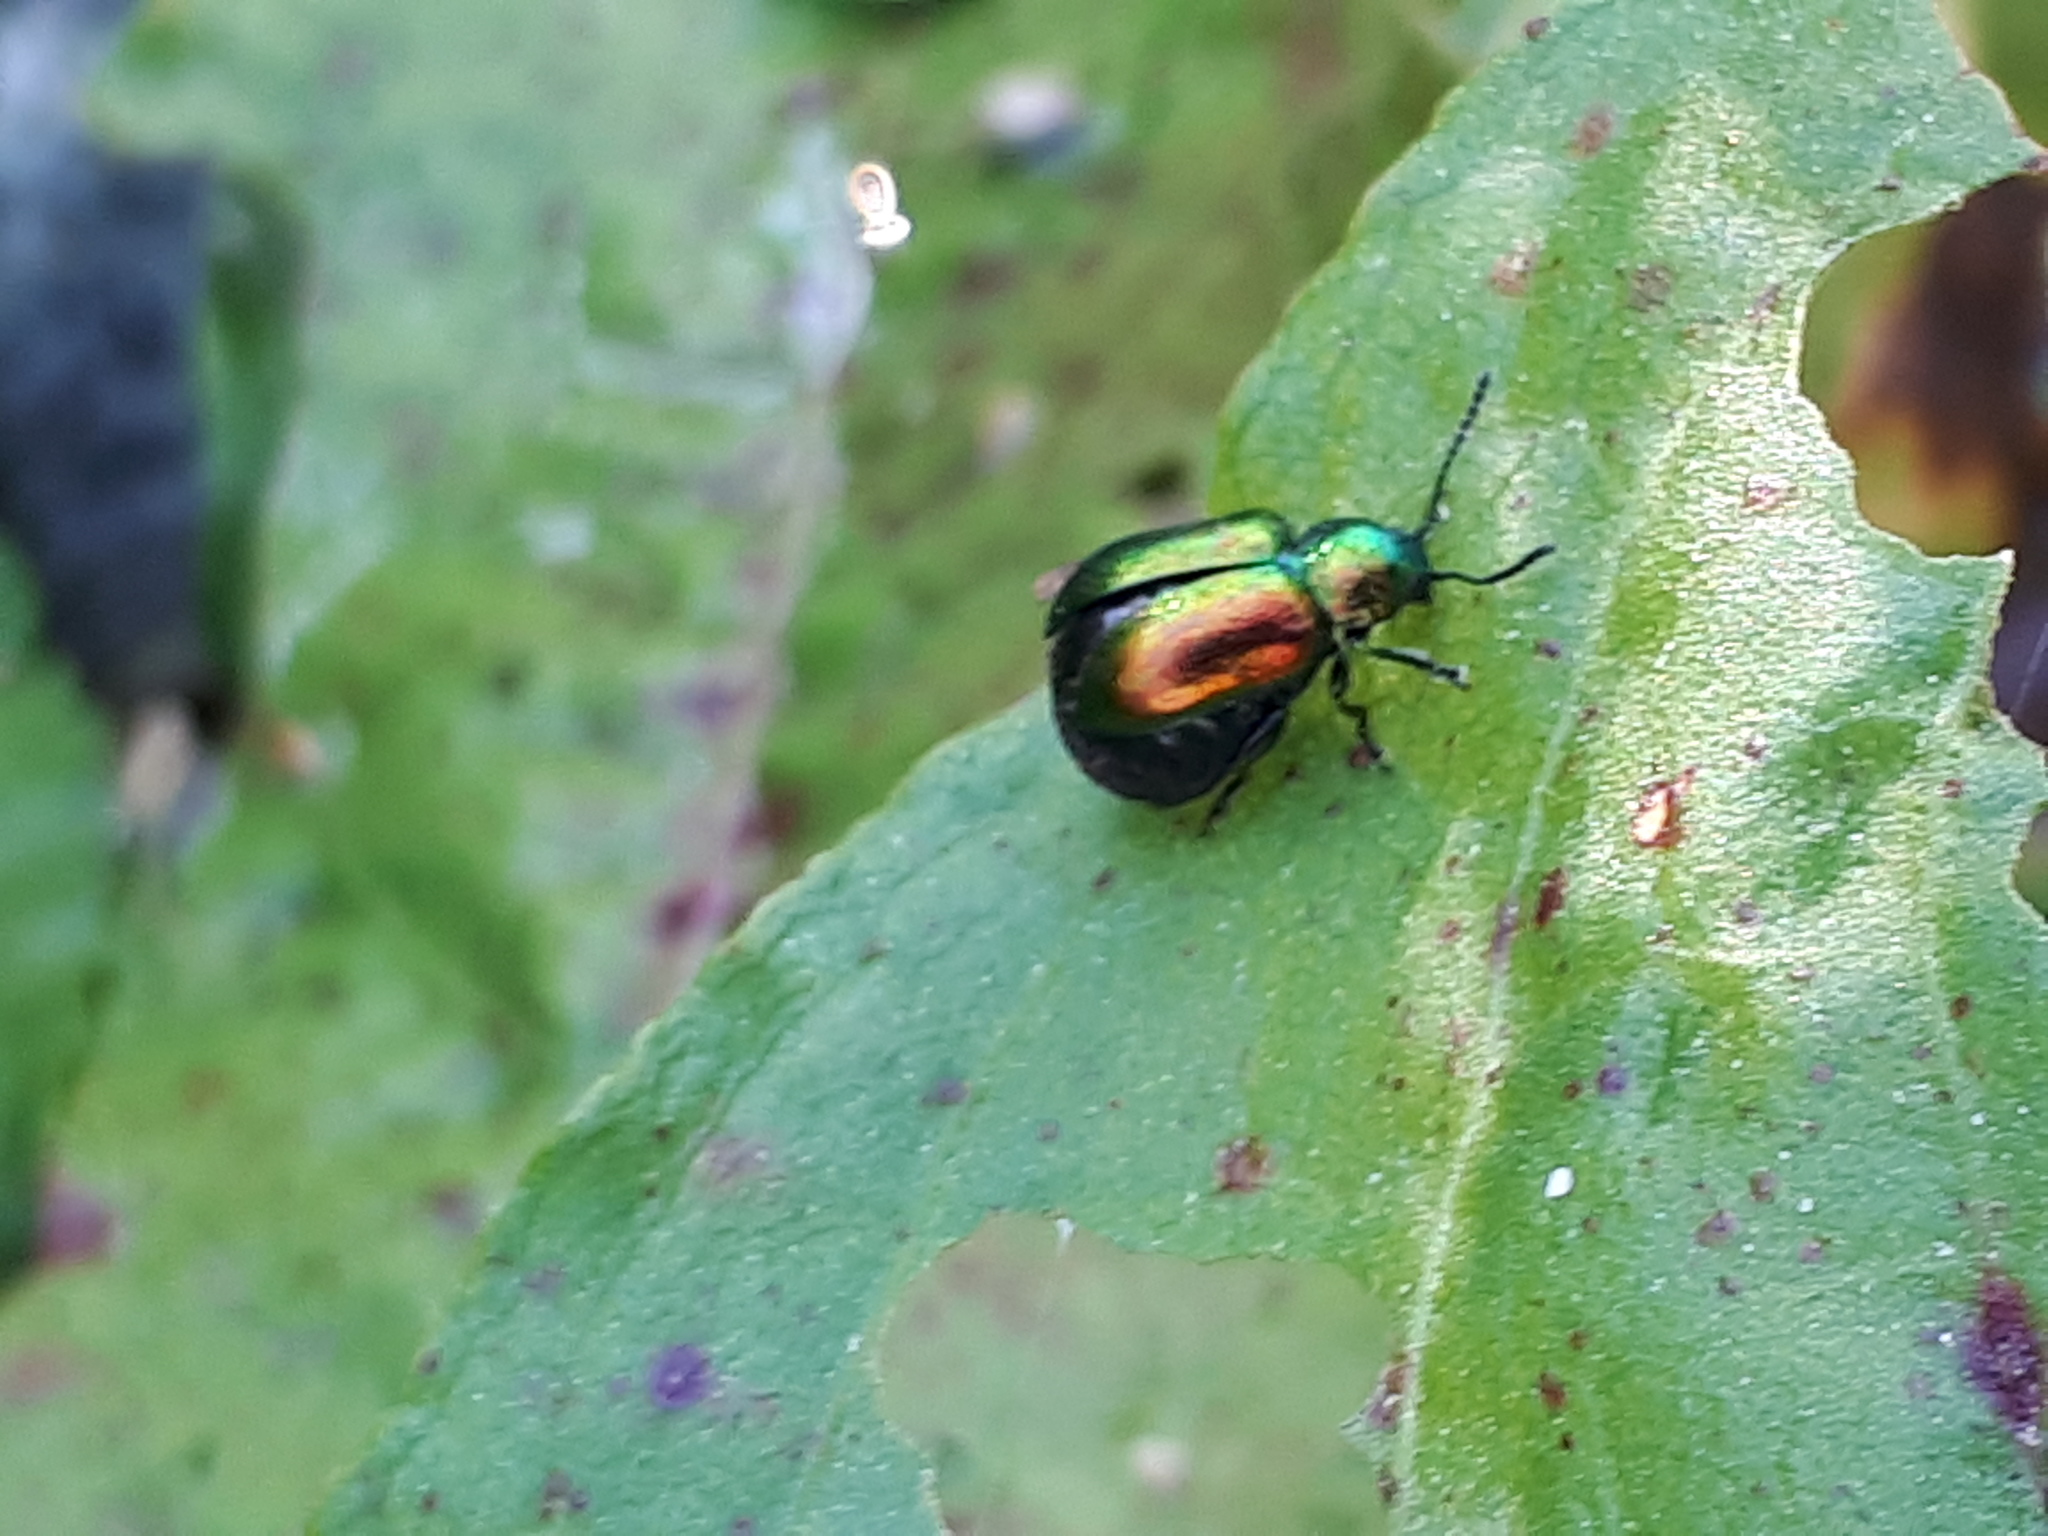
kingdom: Animalia
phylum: Arthropoda
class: Insecta
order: Coleoptera
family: Chrysomelidae
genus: Gastrophysa
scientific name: Gastrophysa viridula
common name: Green dock beetle
